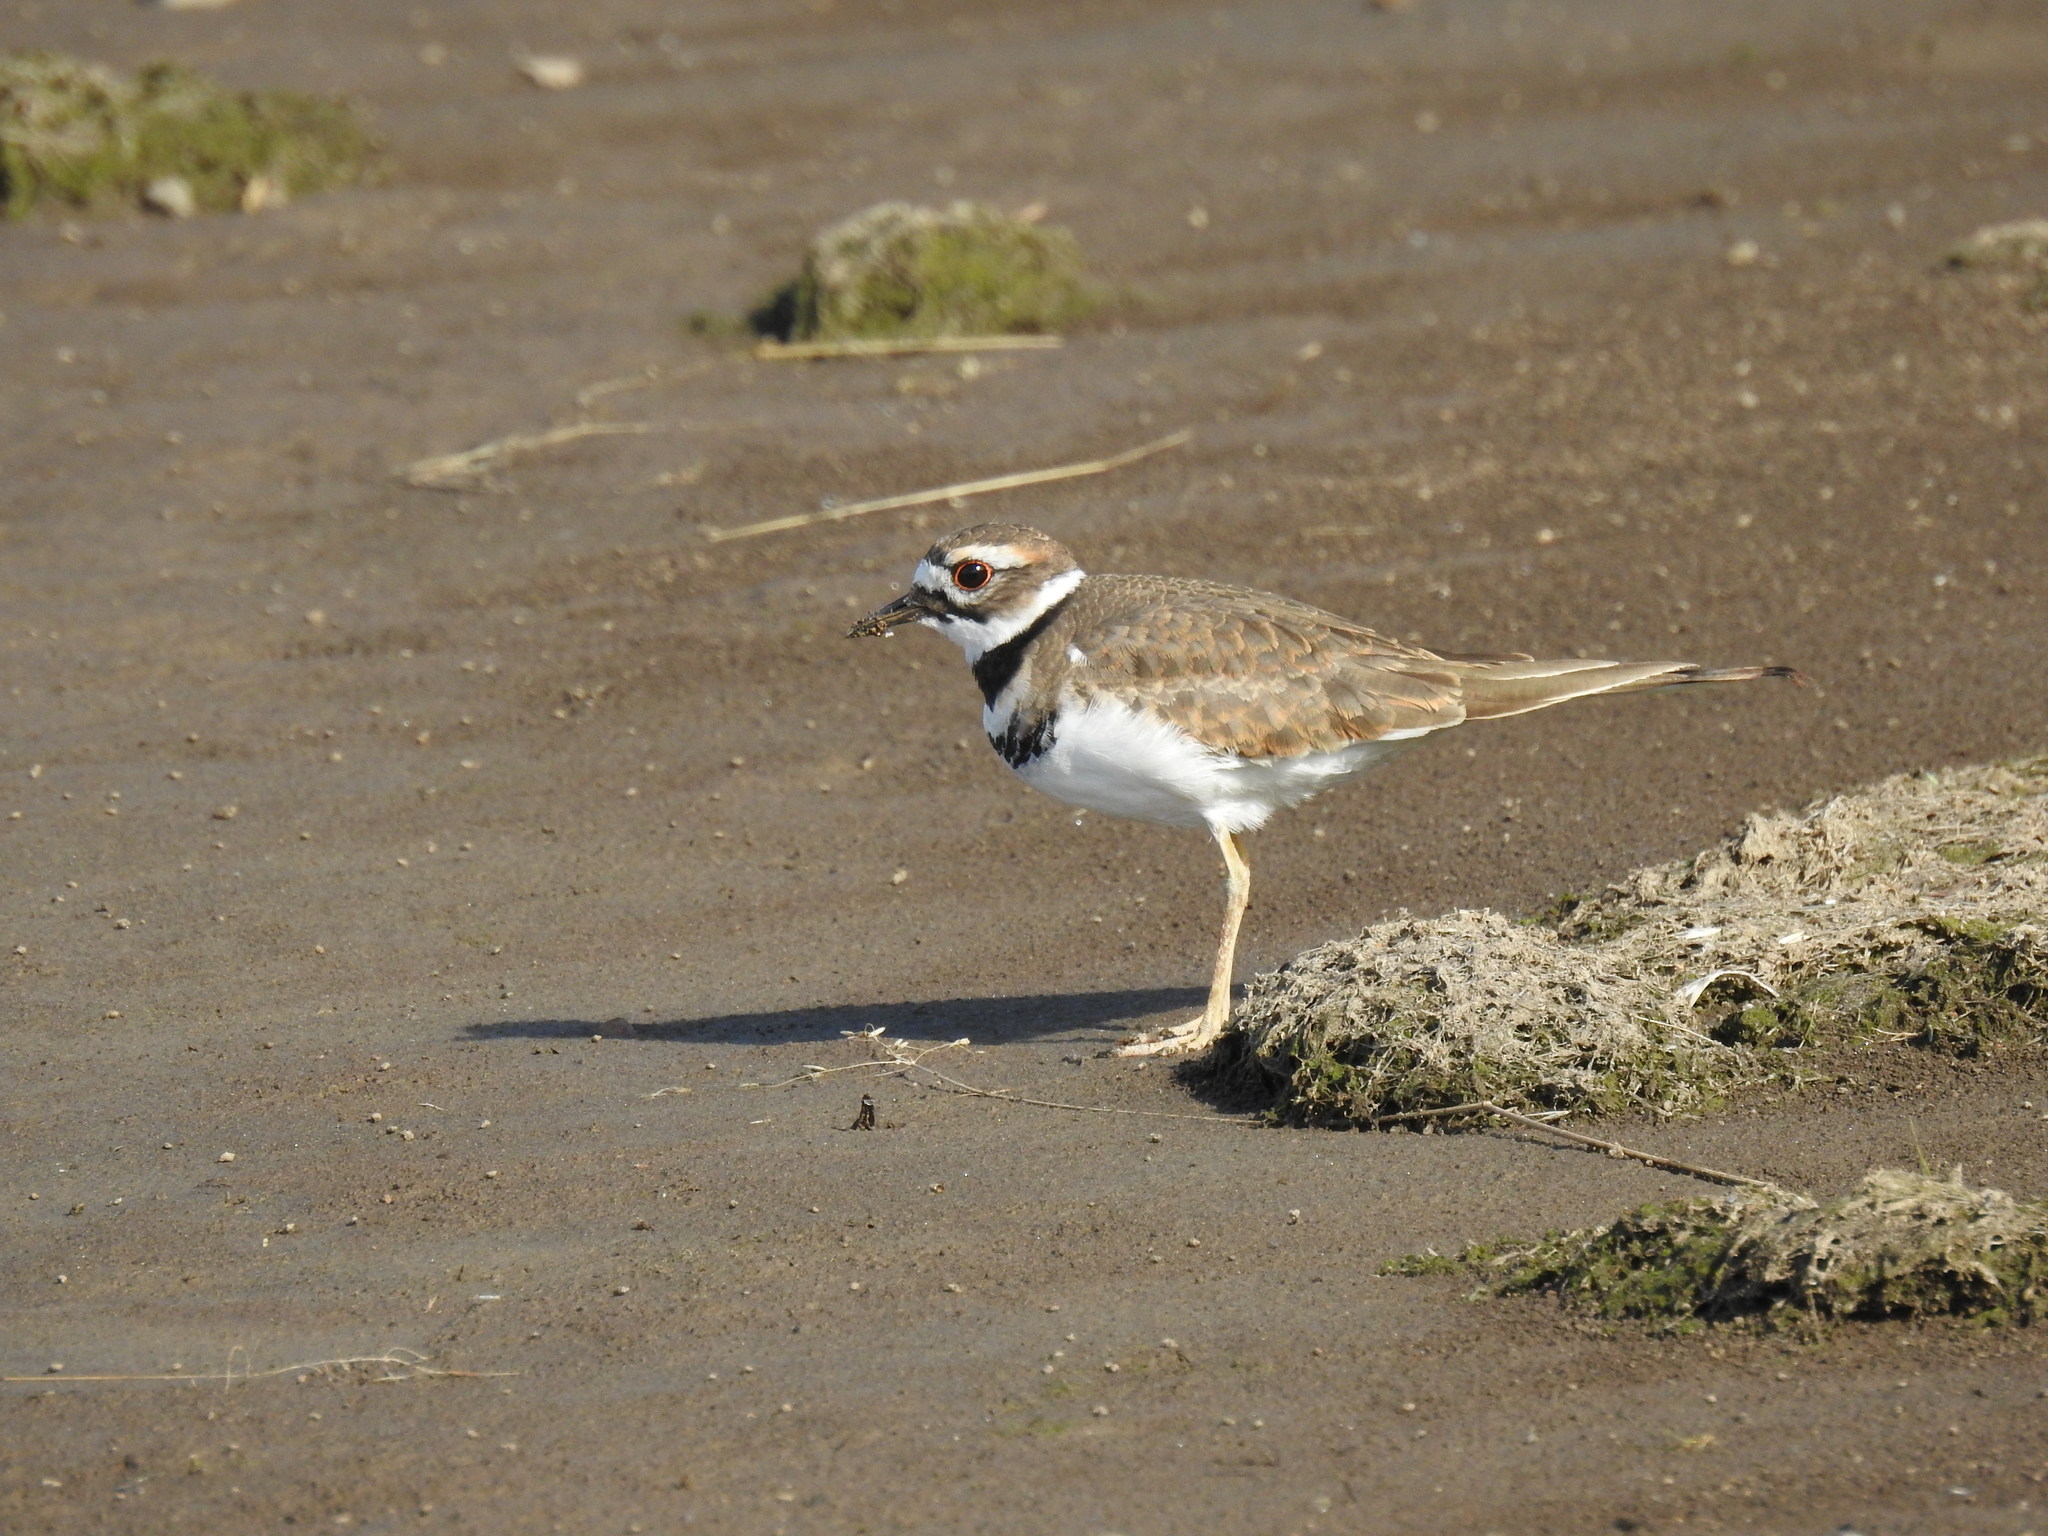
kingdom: Animalia
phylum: Chordata
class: Aves
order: Charadriiformes
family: Charadriidae
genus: Charadrius
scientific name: Charadrius vociferus
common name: Killdeer
